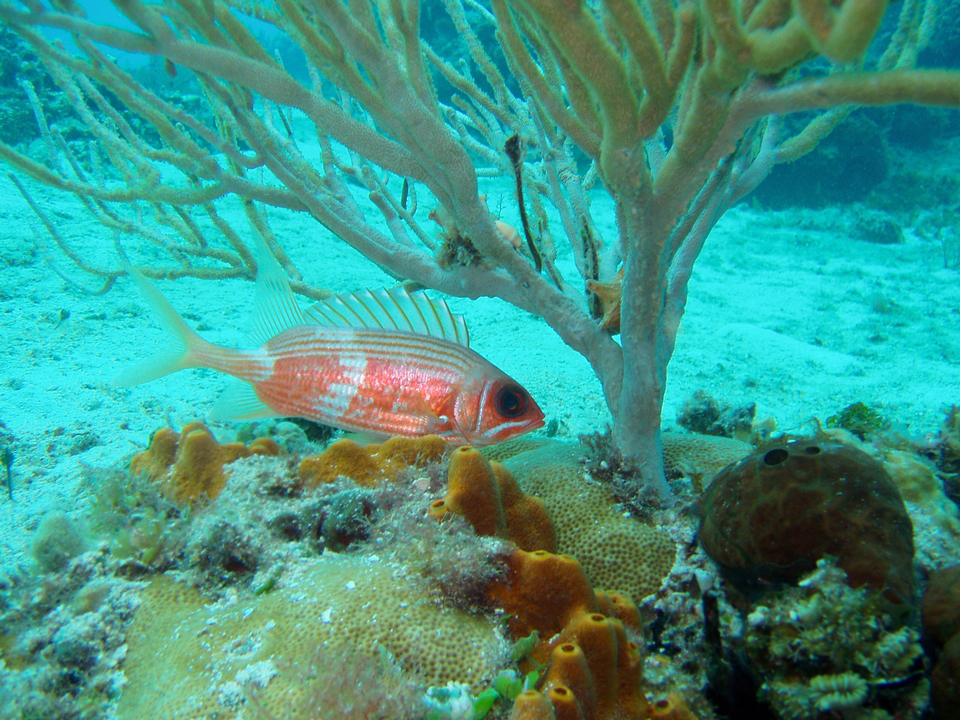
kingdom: Animalia
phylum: Chordata
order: Beryciformes
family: Holocentridae
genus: Holocentrus
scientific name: Holocentrus rufus
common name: Longspine squirrelfish
